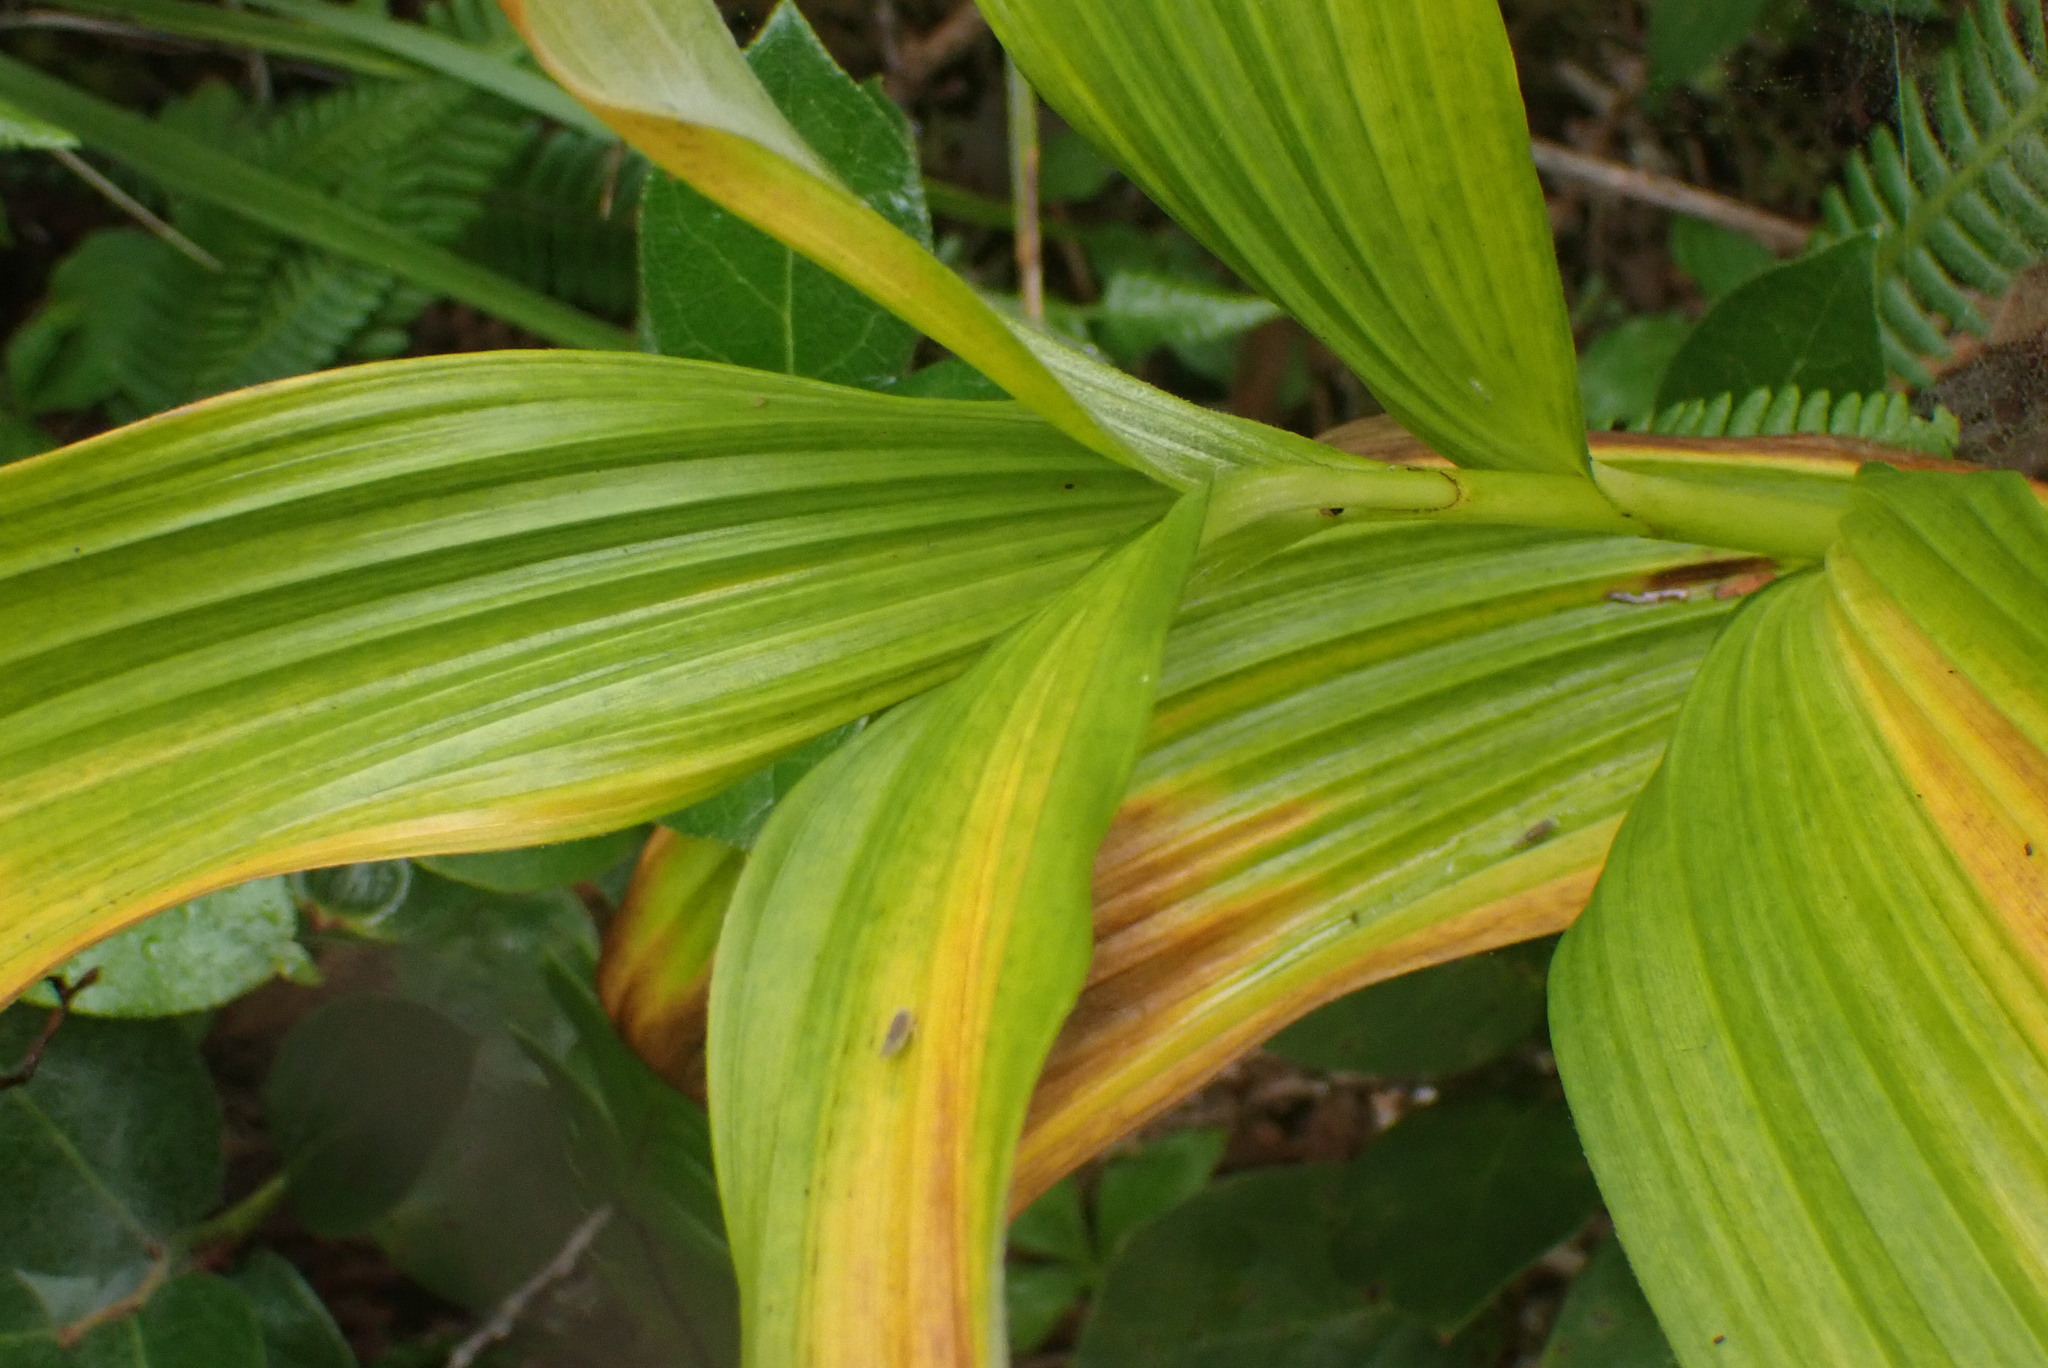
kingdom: Plantae
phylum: Tracheophyta
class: Liliopsida
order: Liliales
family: Melanthiaceae
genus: Veratrum
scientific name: Veratrum viride
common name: American false hellebore
